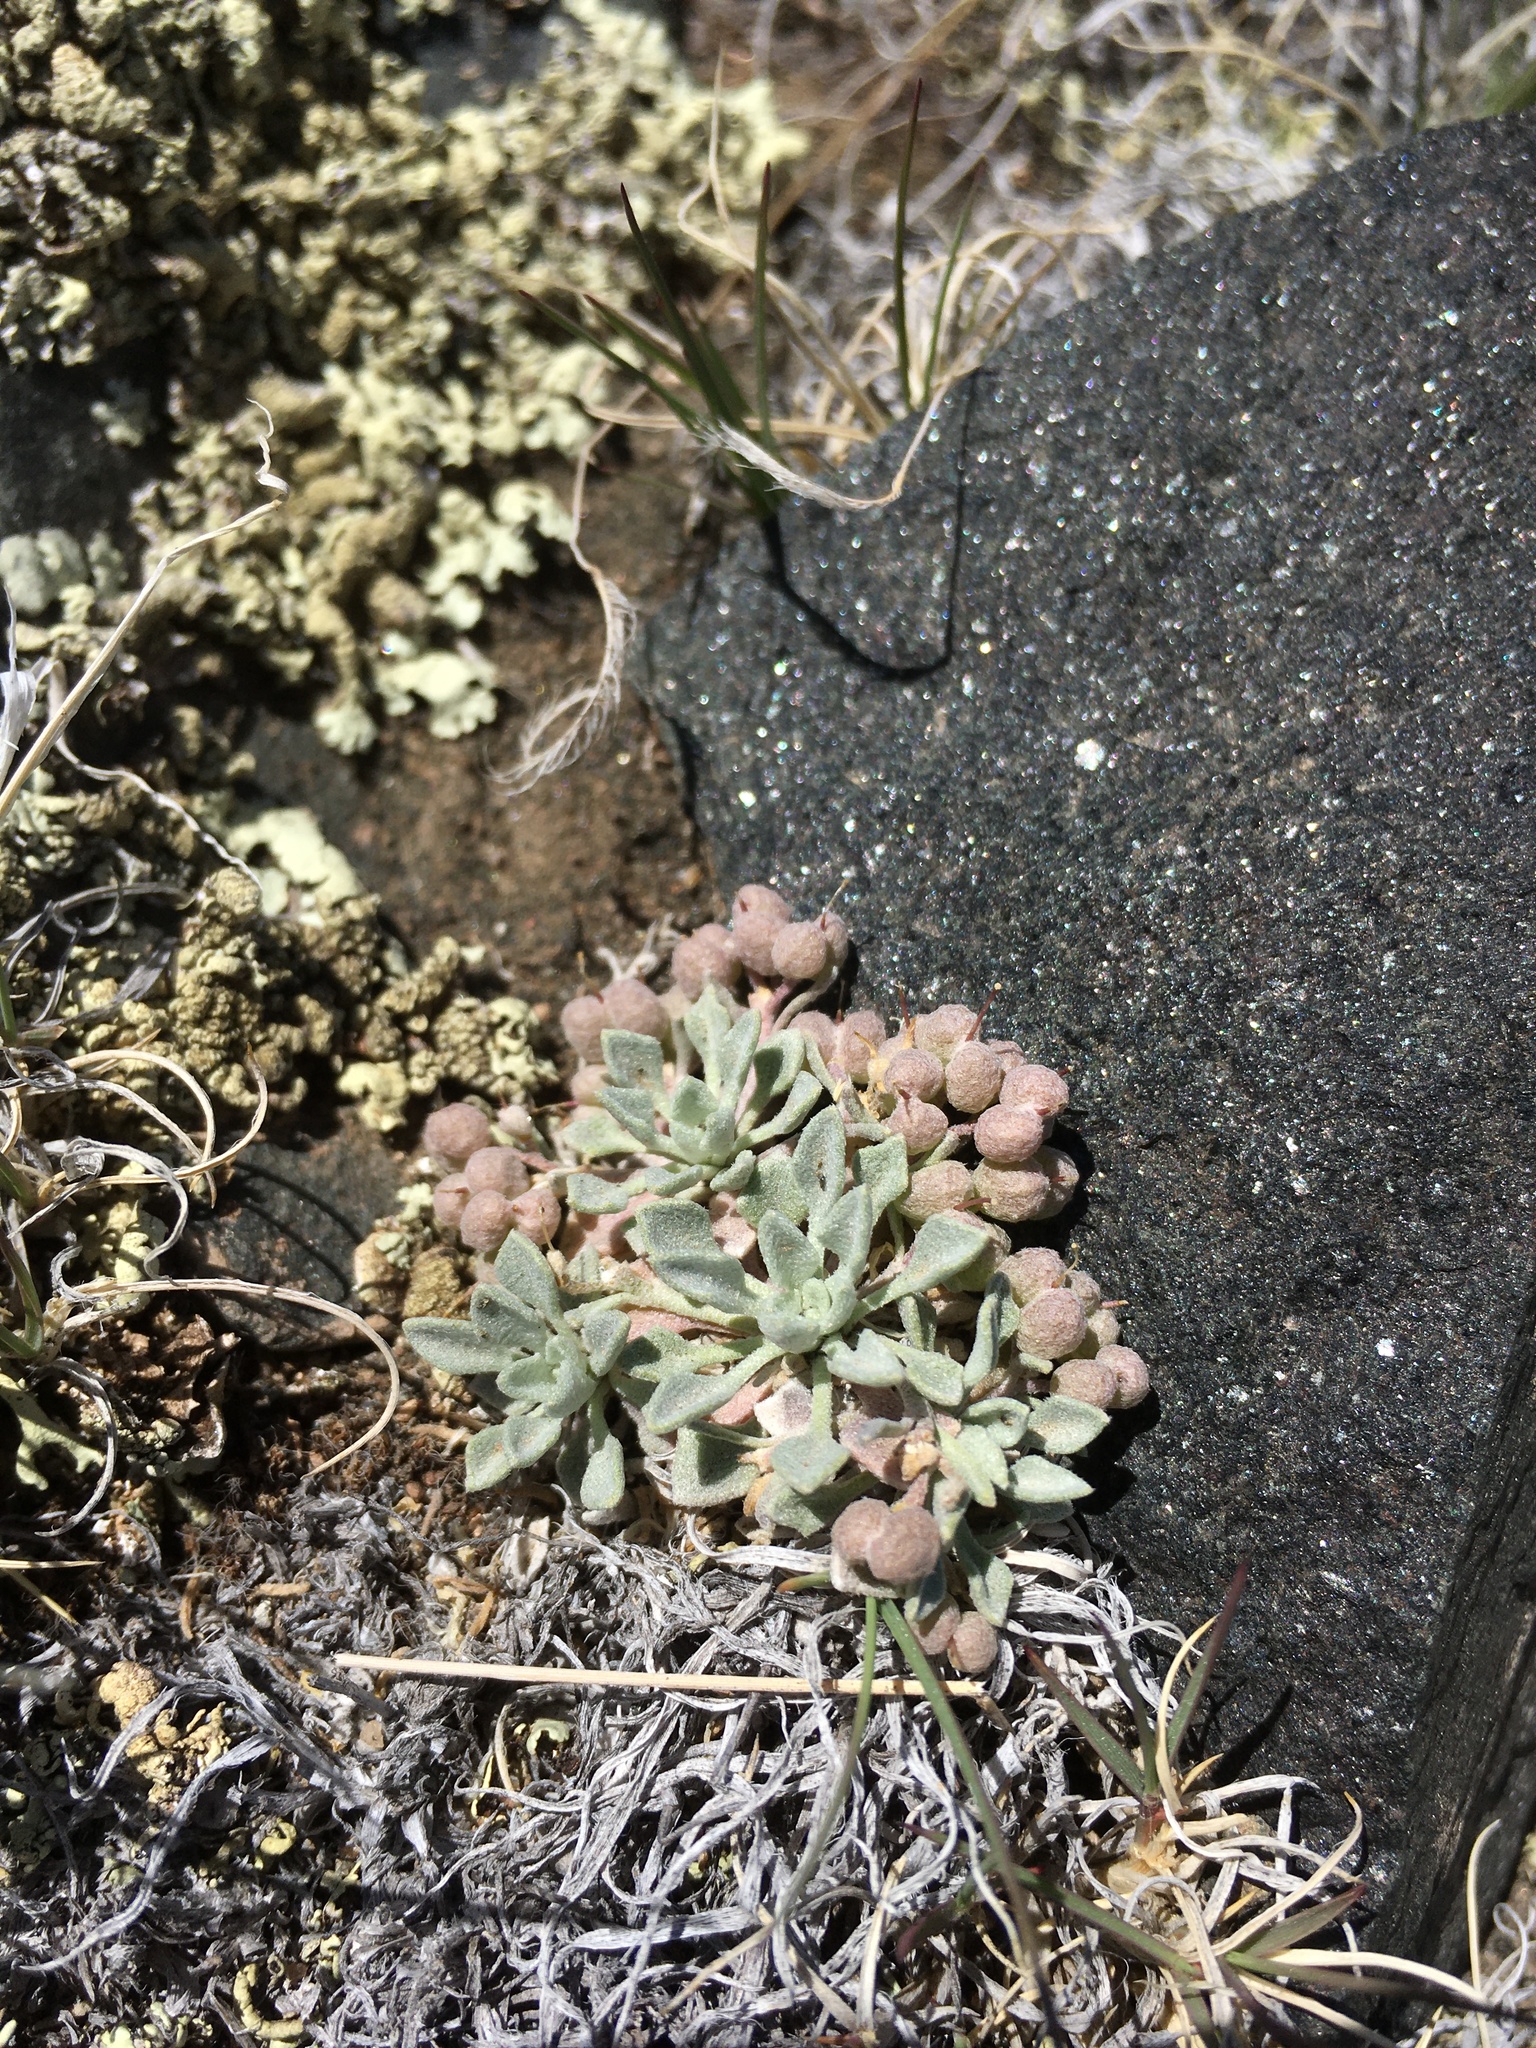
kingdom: Plantae
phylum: Tracheophyta
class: Magnoliopsida
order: Brassicales
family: Brassicaceae
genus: Physaria
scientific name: Physaria rollinsii
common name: Rollins's twinpod
